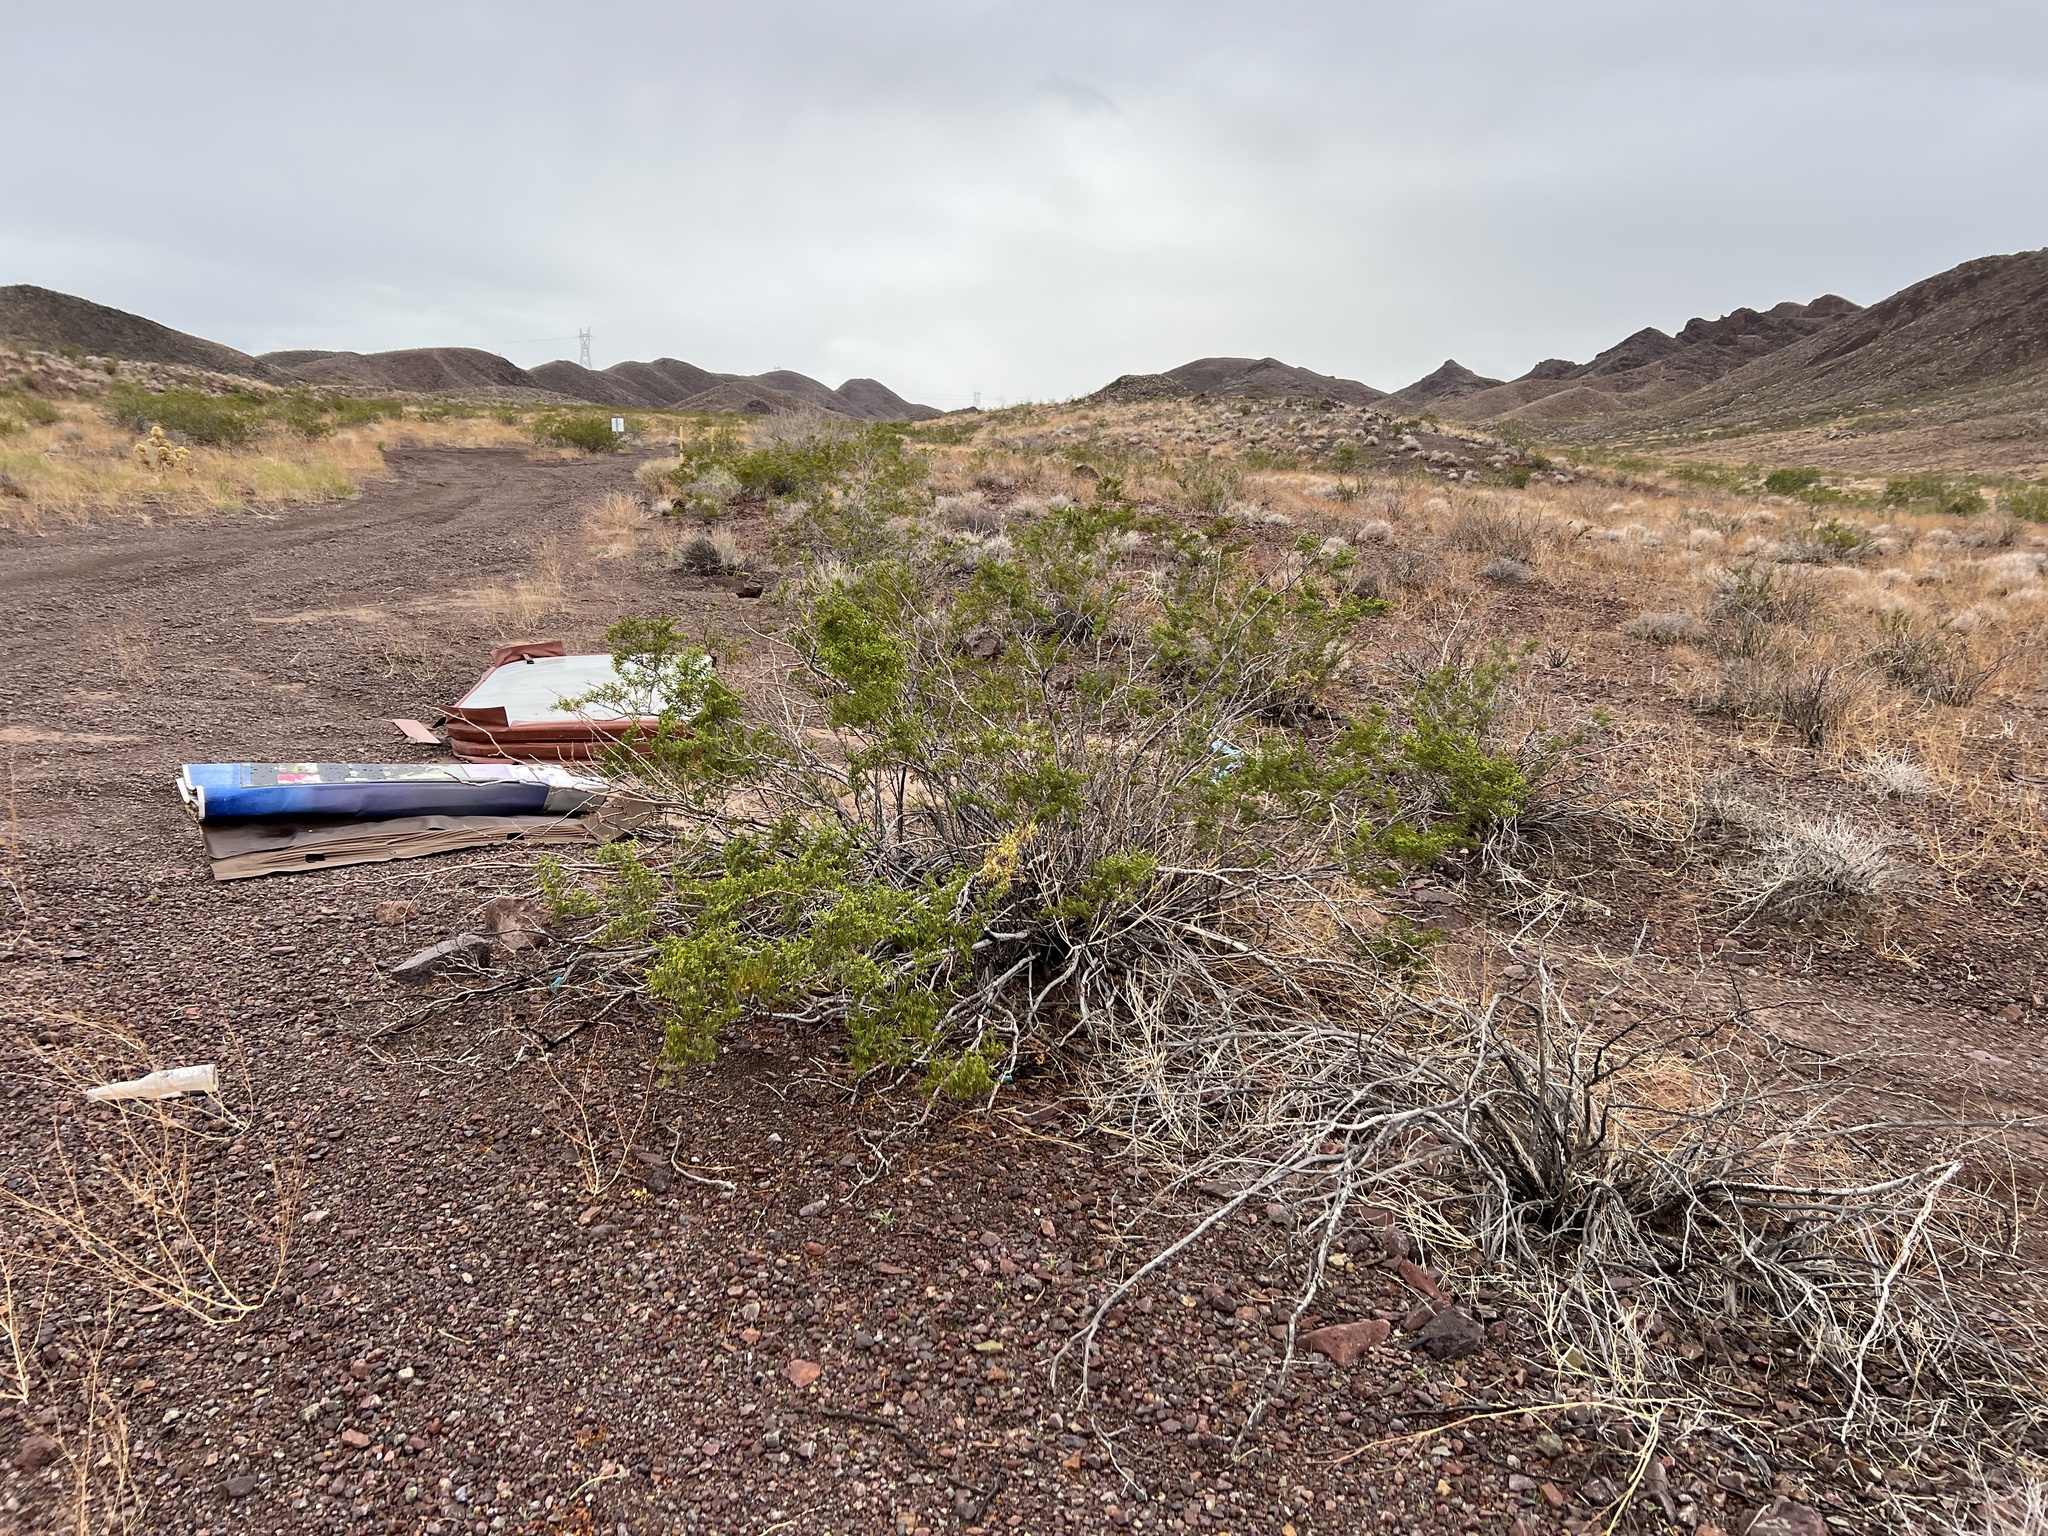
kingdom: Plantae
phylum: Tracheophyta
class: Magnoliopsida
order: Zygophyllales
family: Zygophyllaceae
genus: Larrea
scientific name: Larrea tridentata
